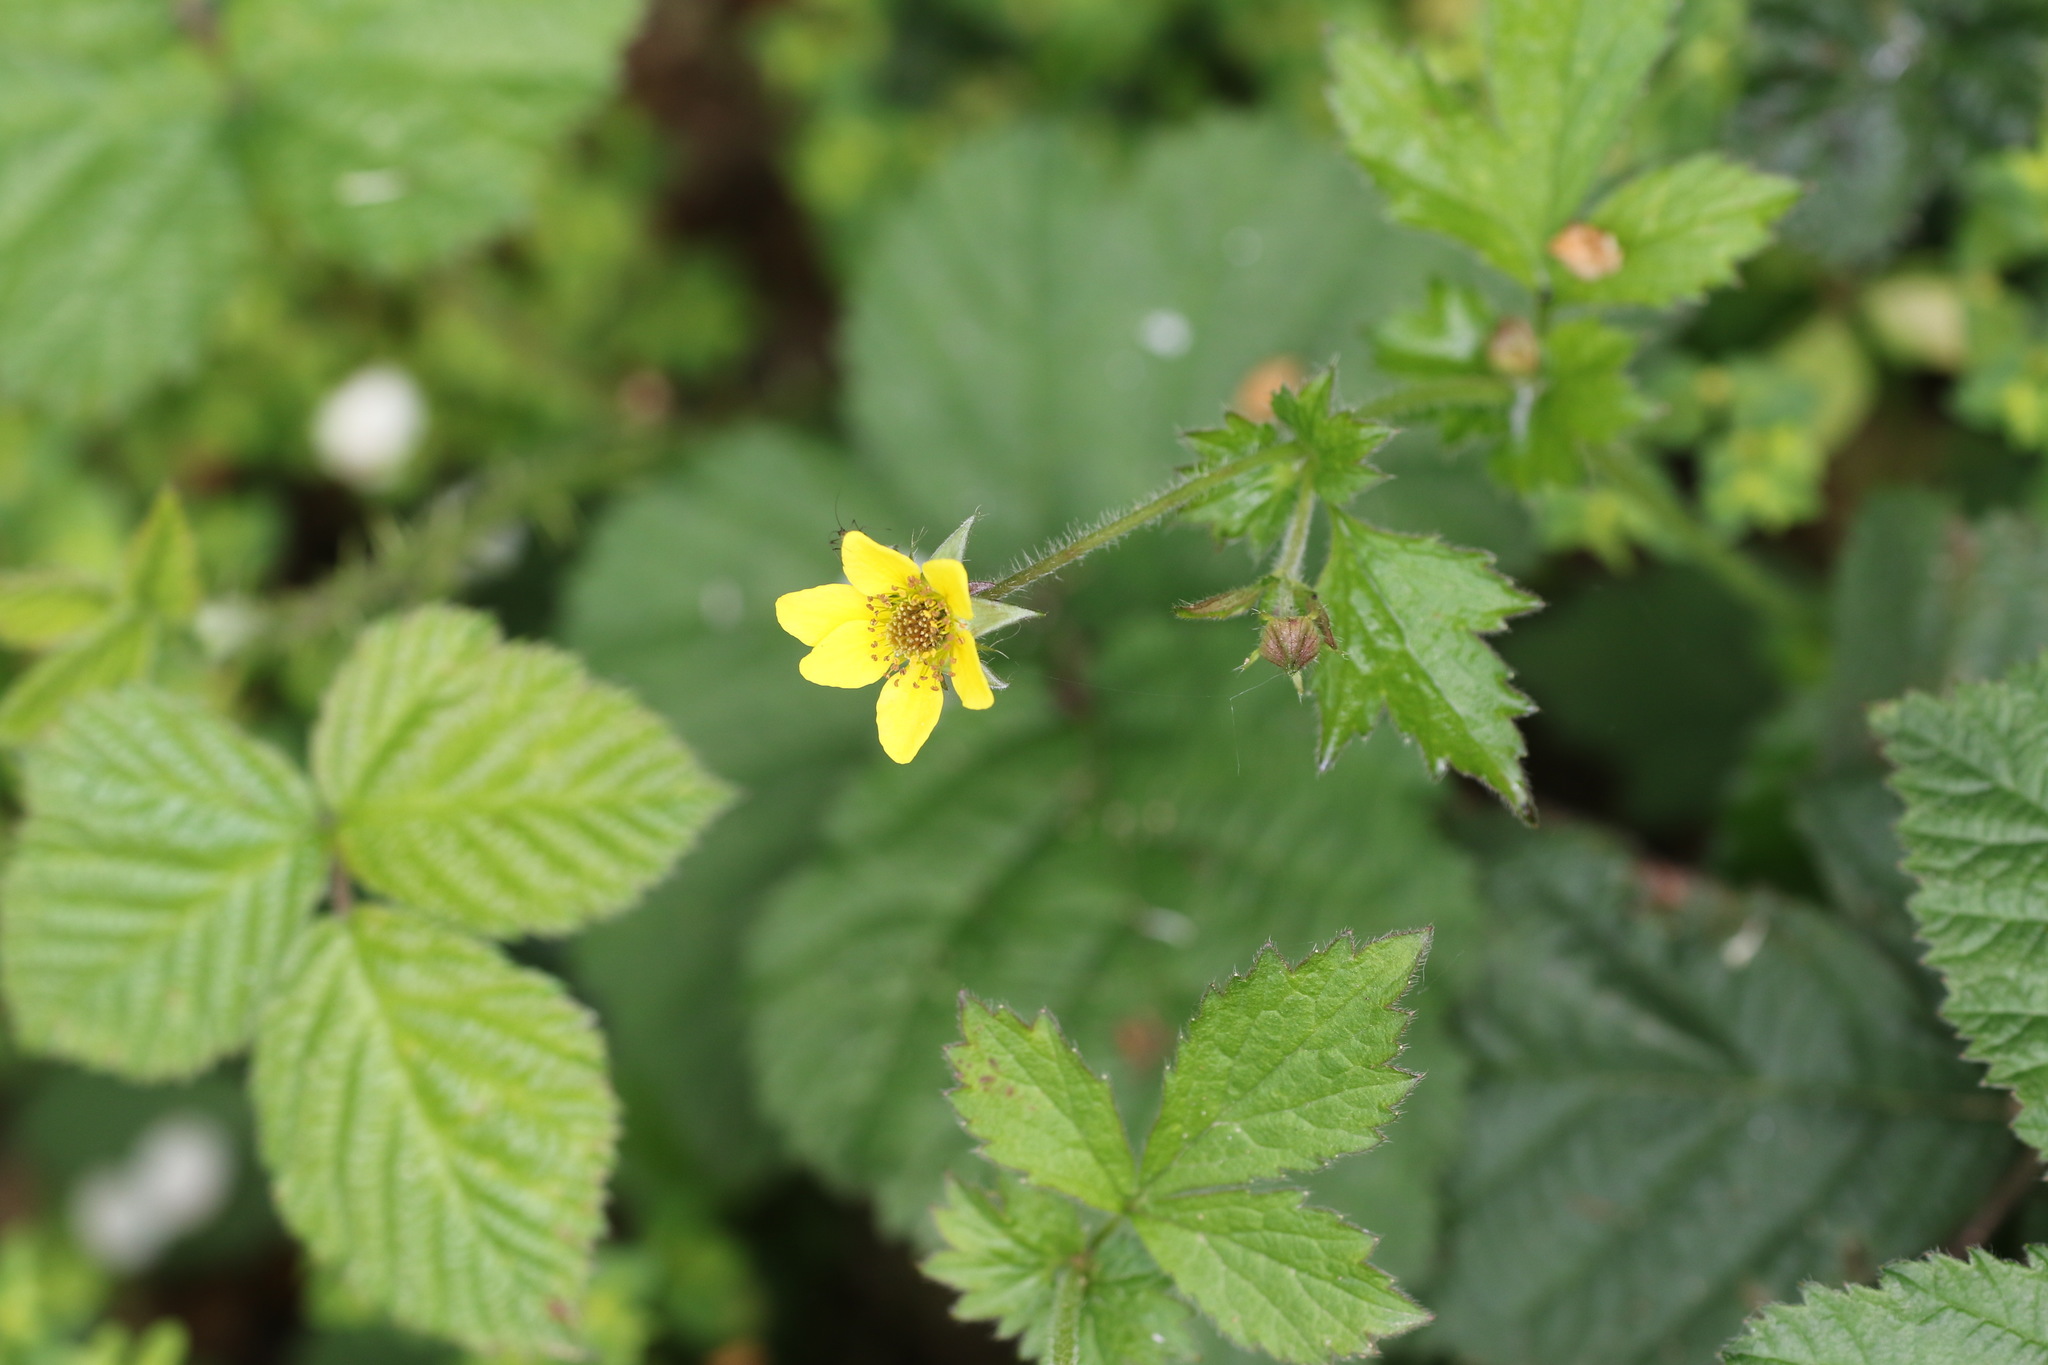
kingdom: Plantae
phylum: Tracheophyta
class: Magnoliopsida
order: Rosales
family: Rosaceae
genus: Geum
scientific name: Geum urbanum
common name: Wood avens
